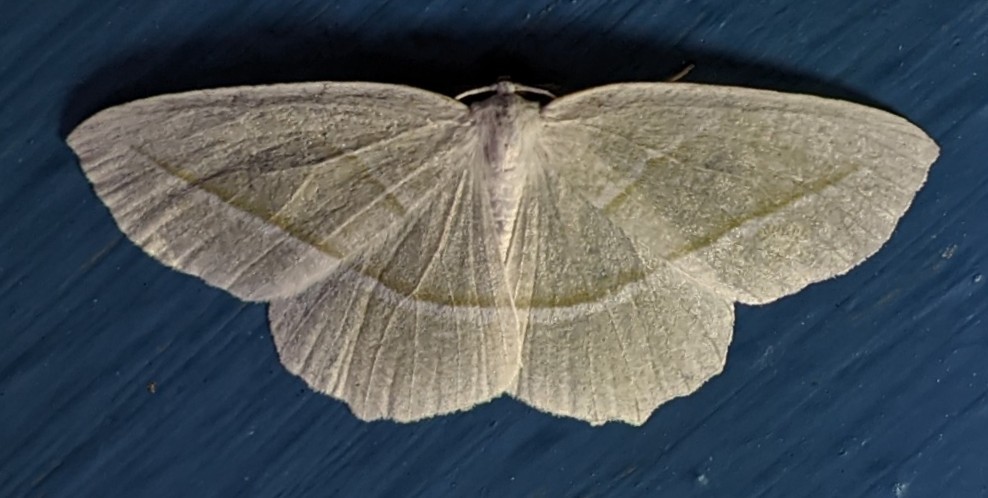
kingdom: Animalia
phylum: Arthropoda
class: Insecta
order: Lepidoptera
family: Geometridae
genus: Campaea
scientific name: Campaea perlata
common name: Fringed looper
